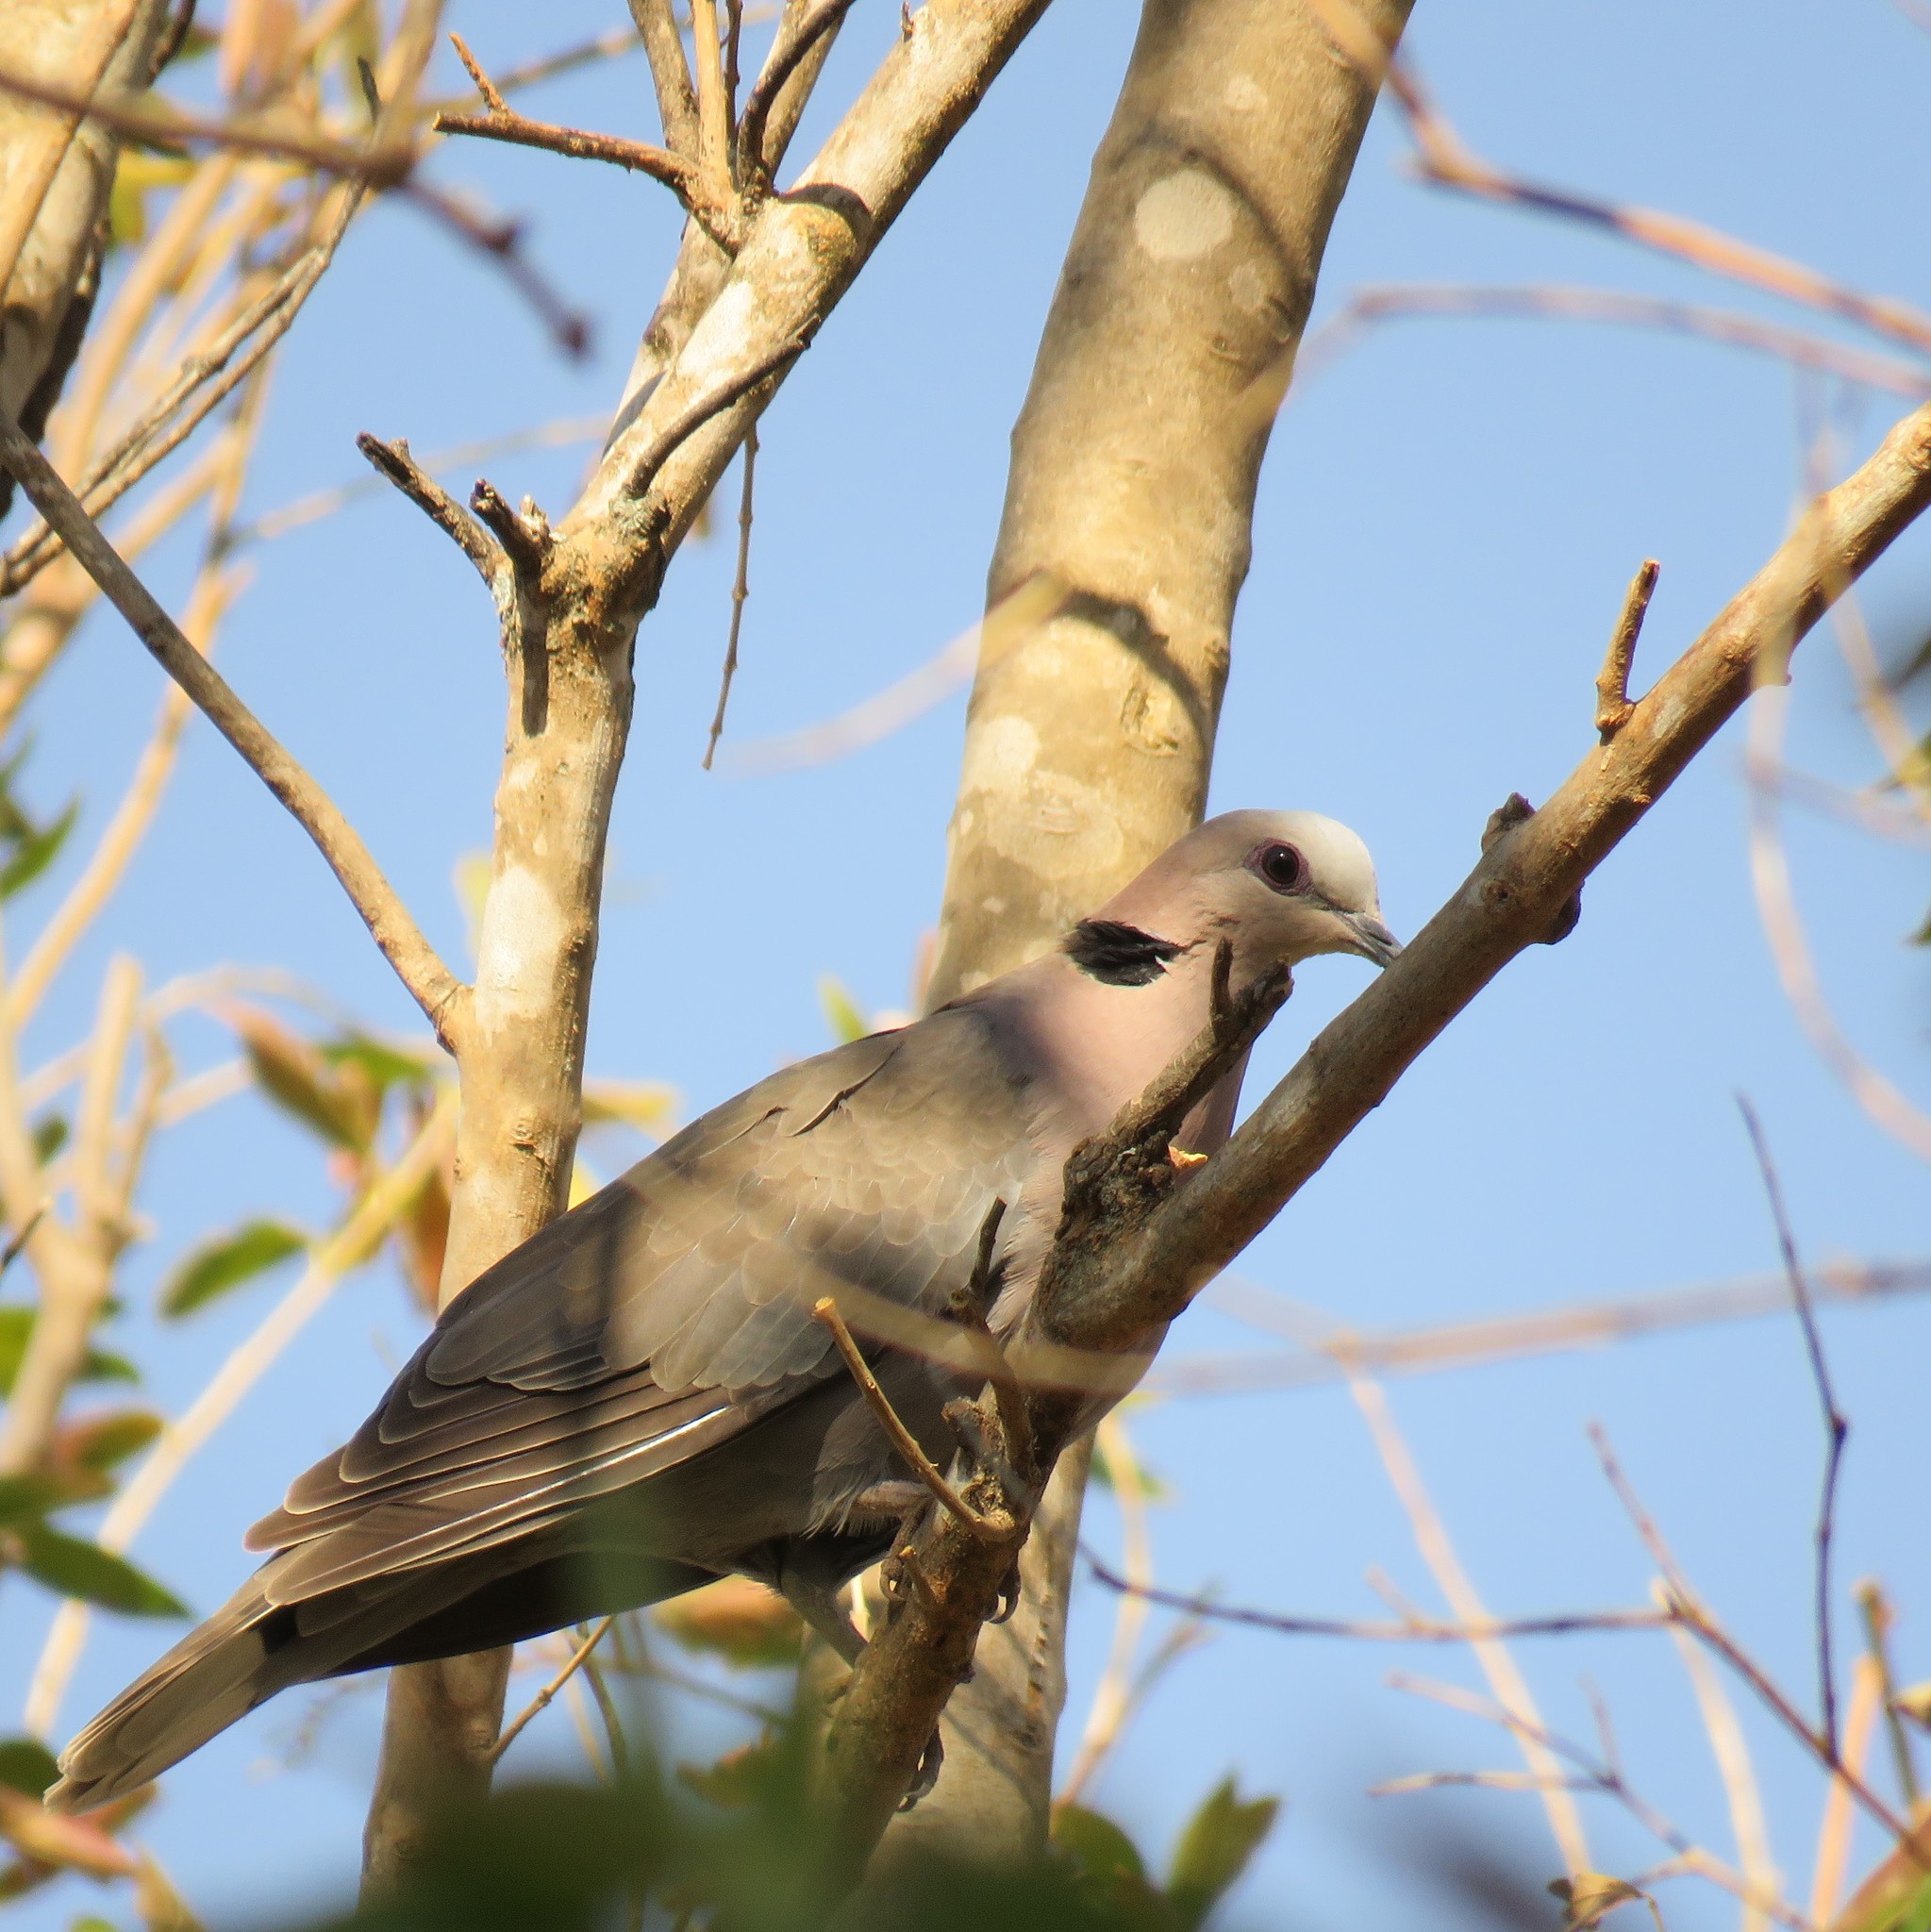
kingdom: Animalia
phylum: Chordata
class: Aves
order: Columbiformes
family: Columbidae
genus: Streptopelia
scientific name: Streptopelia semitorquata
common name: Red-eyed dove
